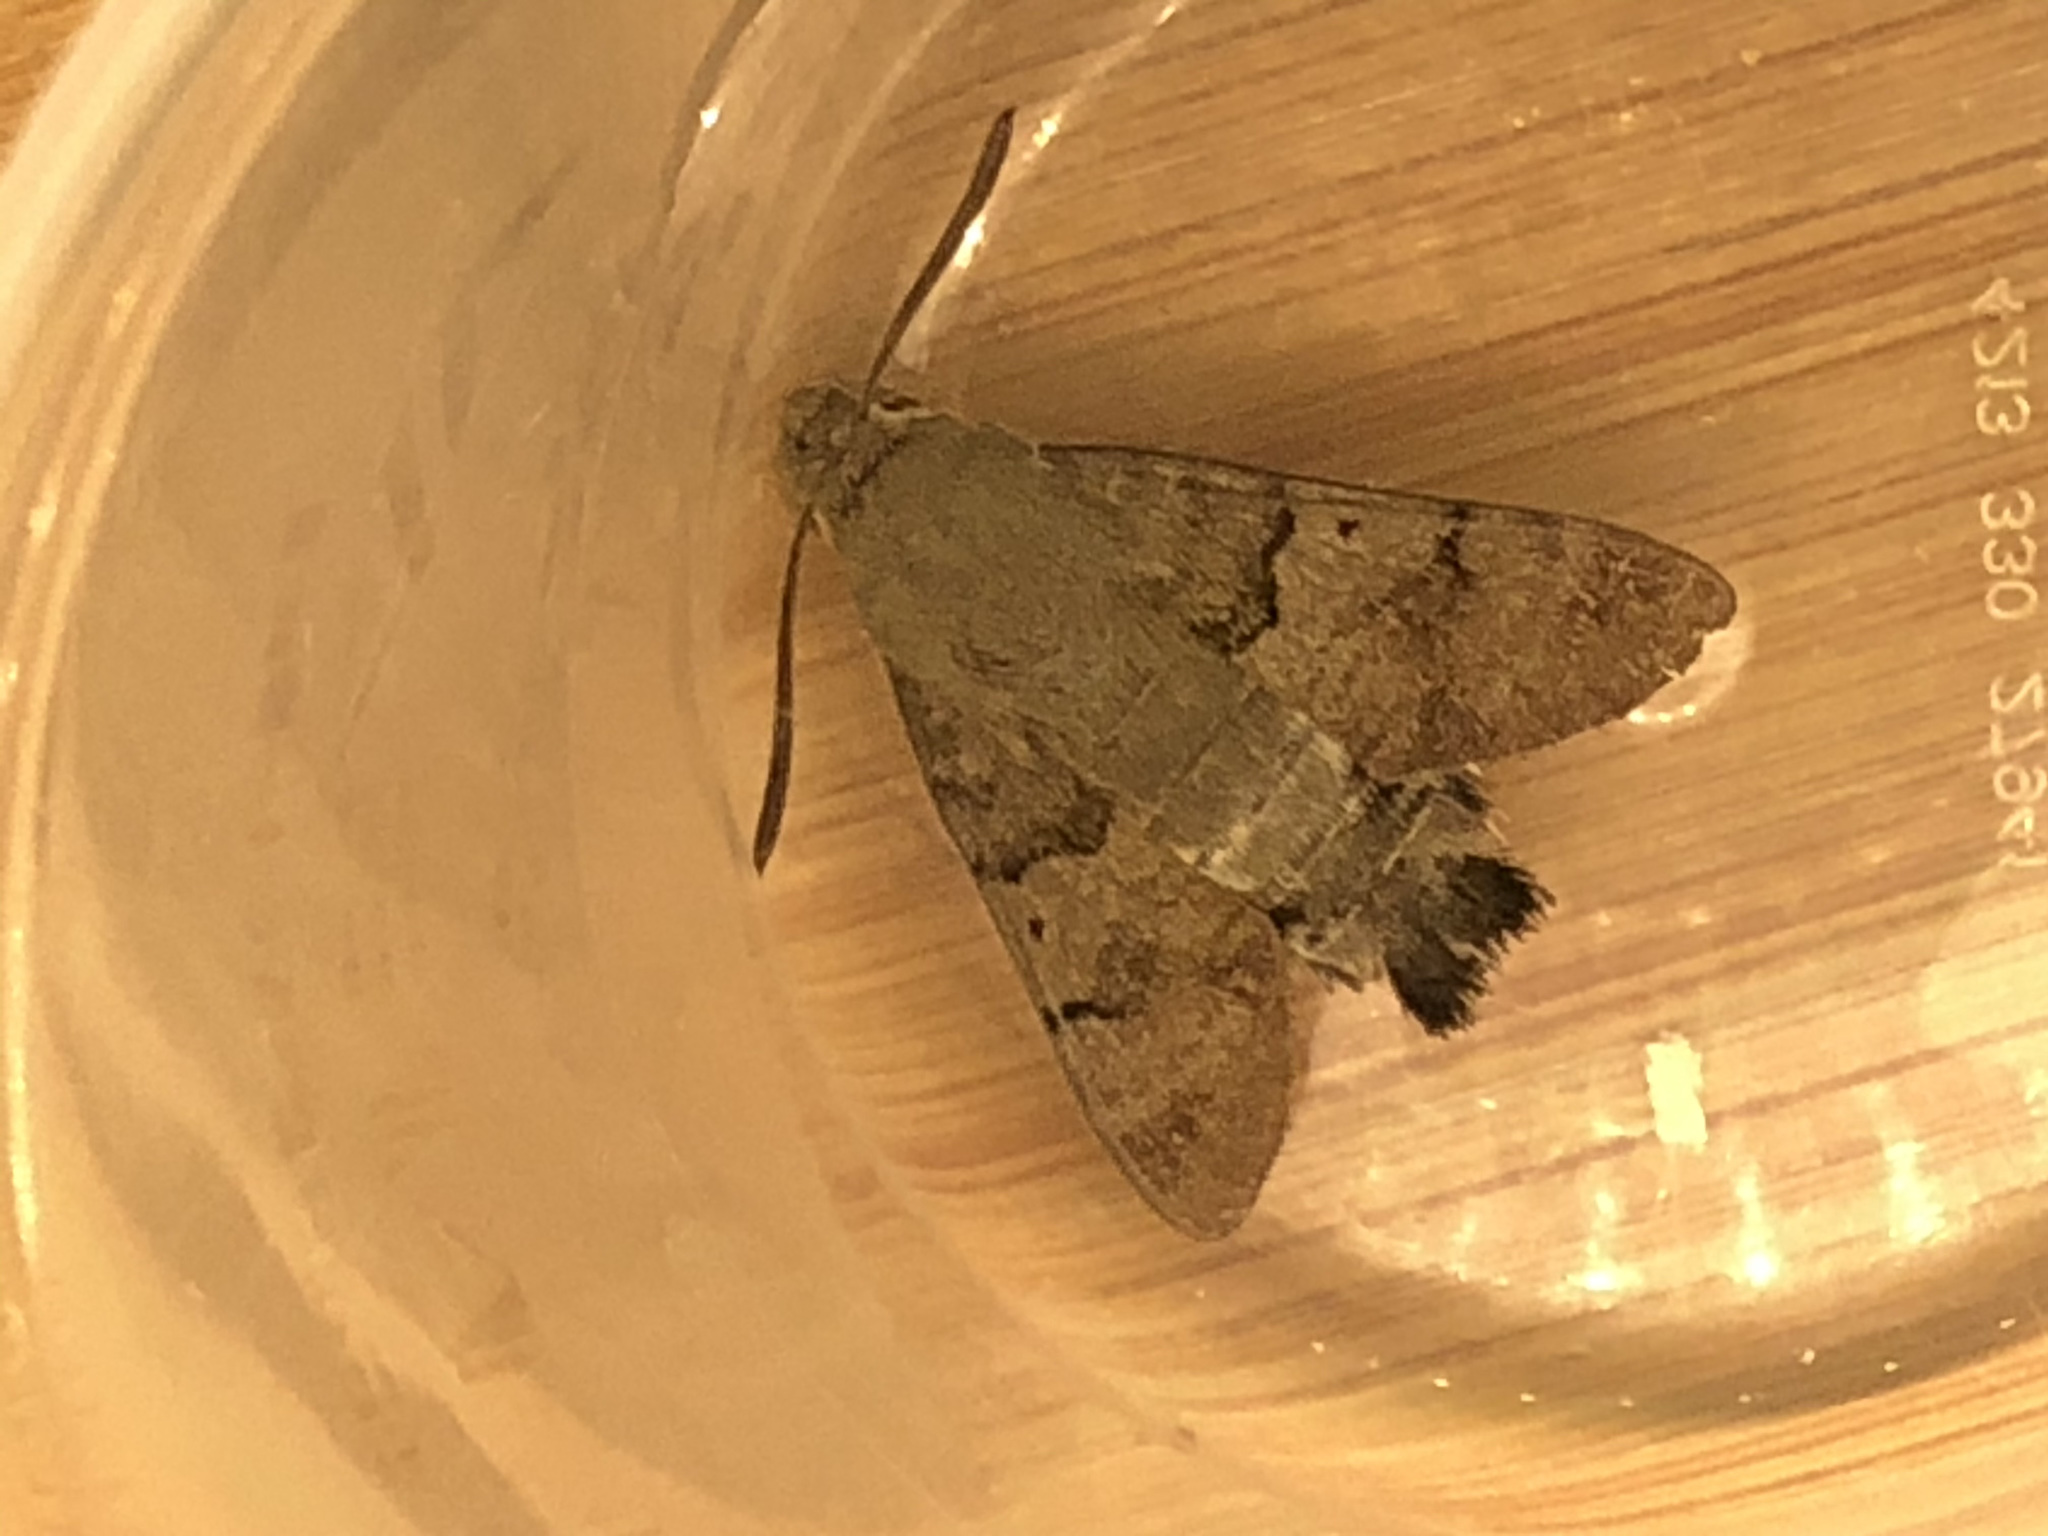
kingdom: Animalia
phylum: Arthropoda
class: Insecta
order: Lepidoptera
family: Sphingidae
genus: Macroglossum
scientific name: Macroglossum stellatarum
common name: Humming-bird hawk-moth
